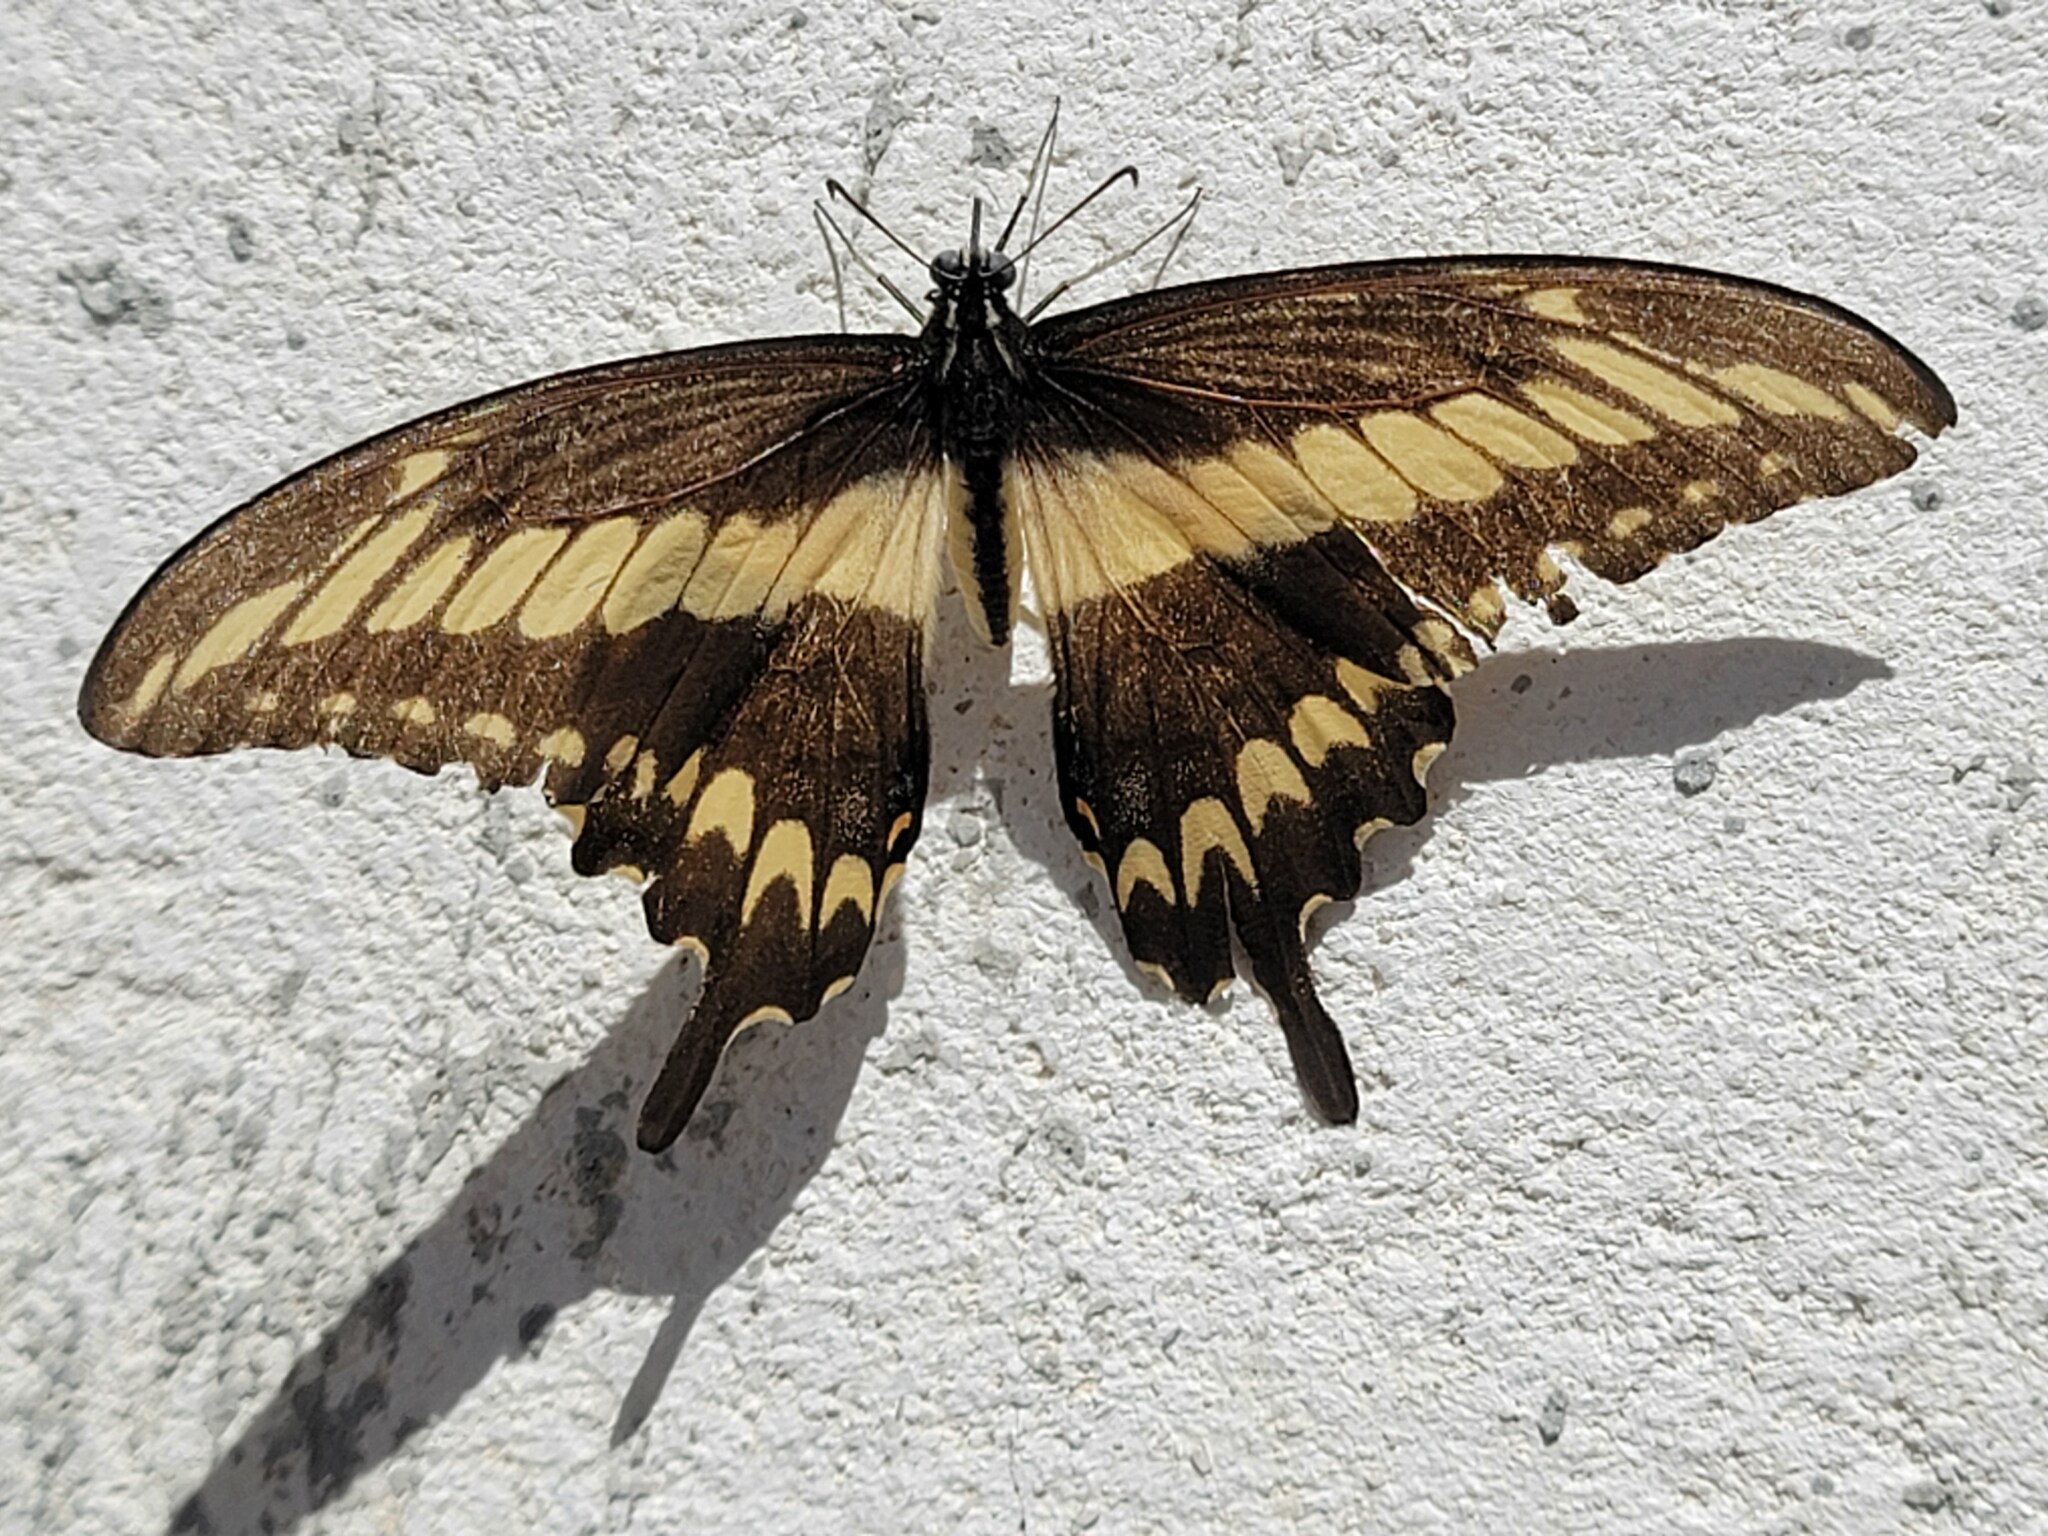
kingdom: Animalia
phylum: Arthropoda
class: Insecta
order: Lepidoptera
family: Papilionidae
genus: Papilio
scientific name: Papilio ornythion
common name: Ornythion swallowtail
